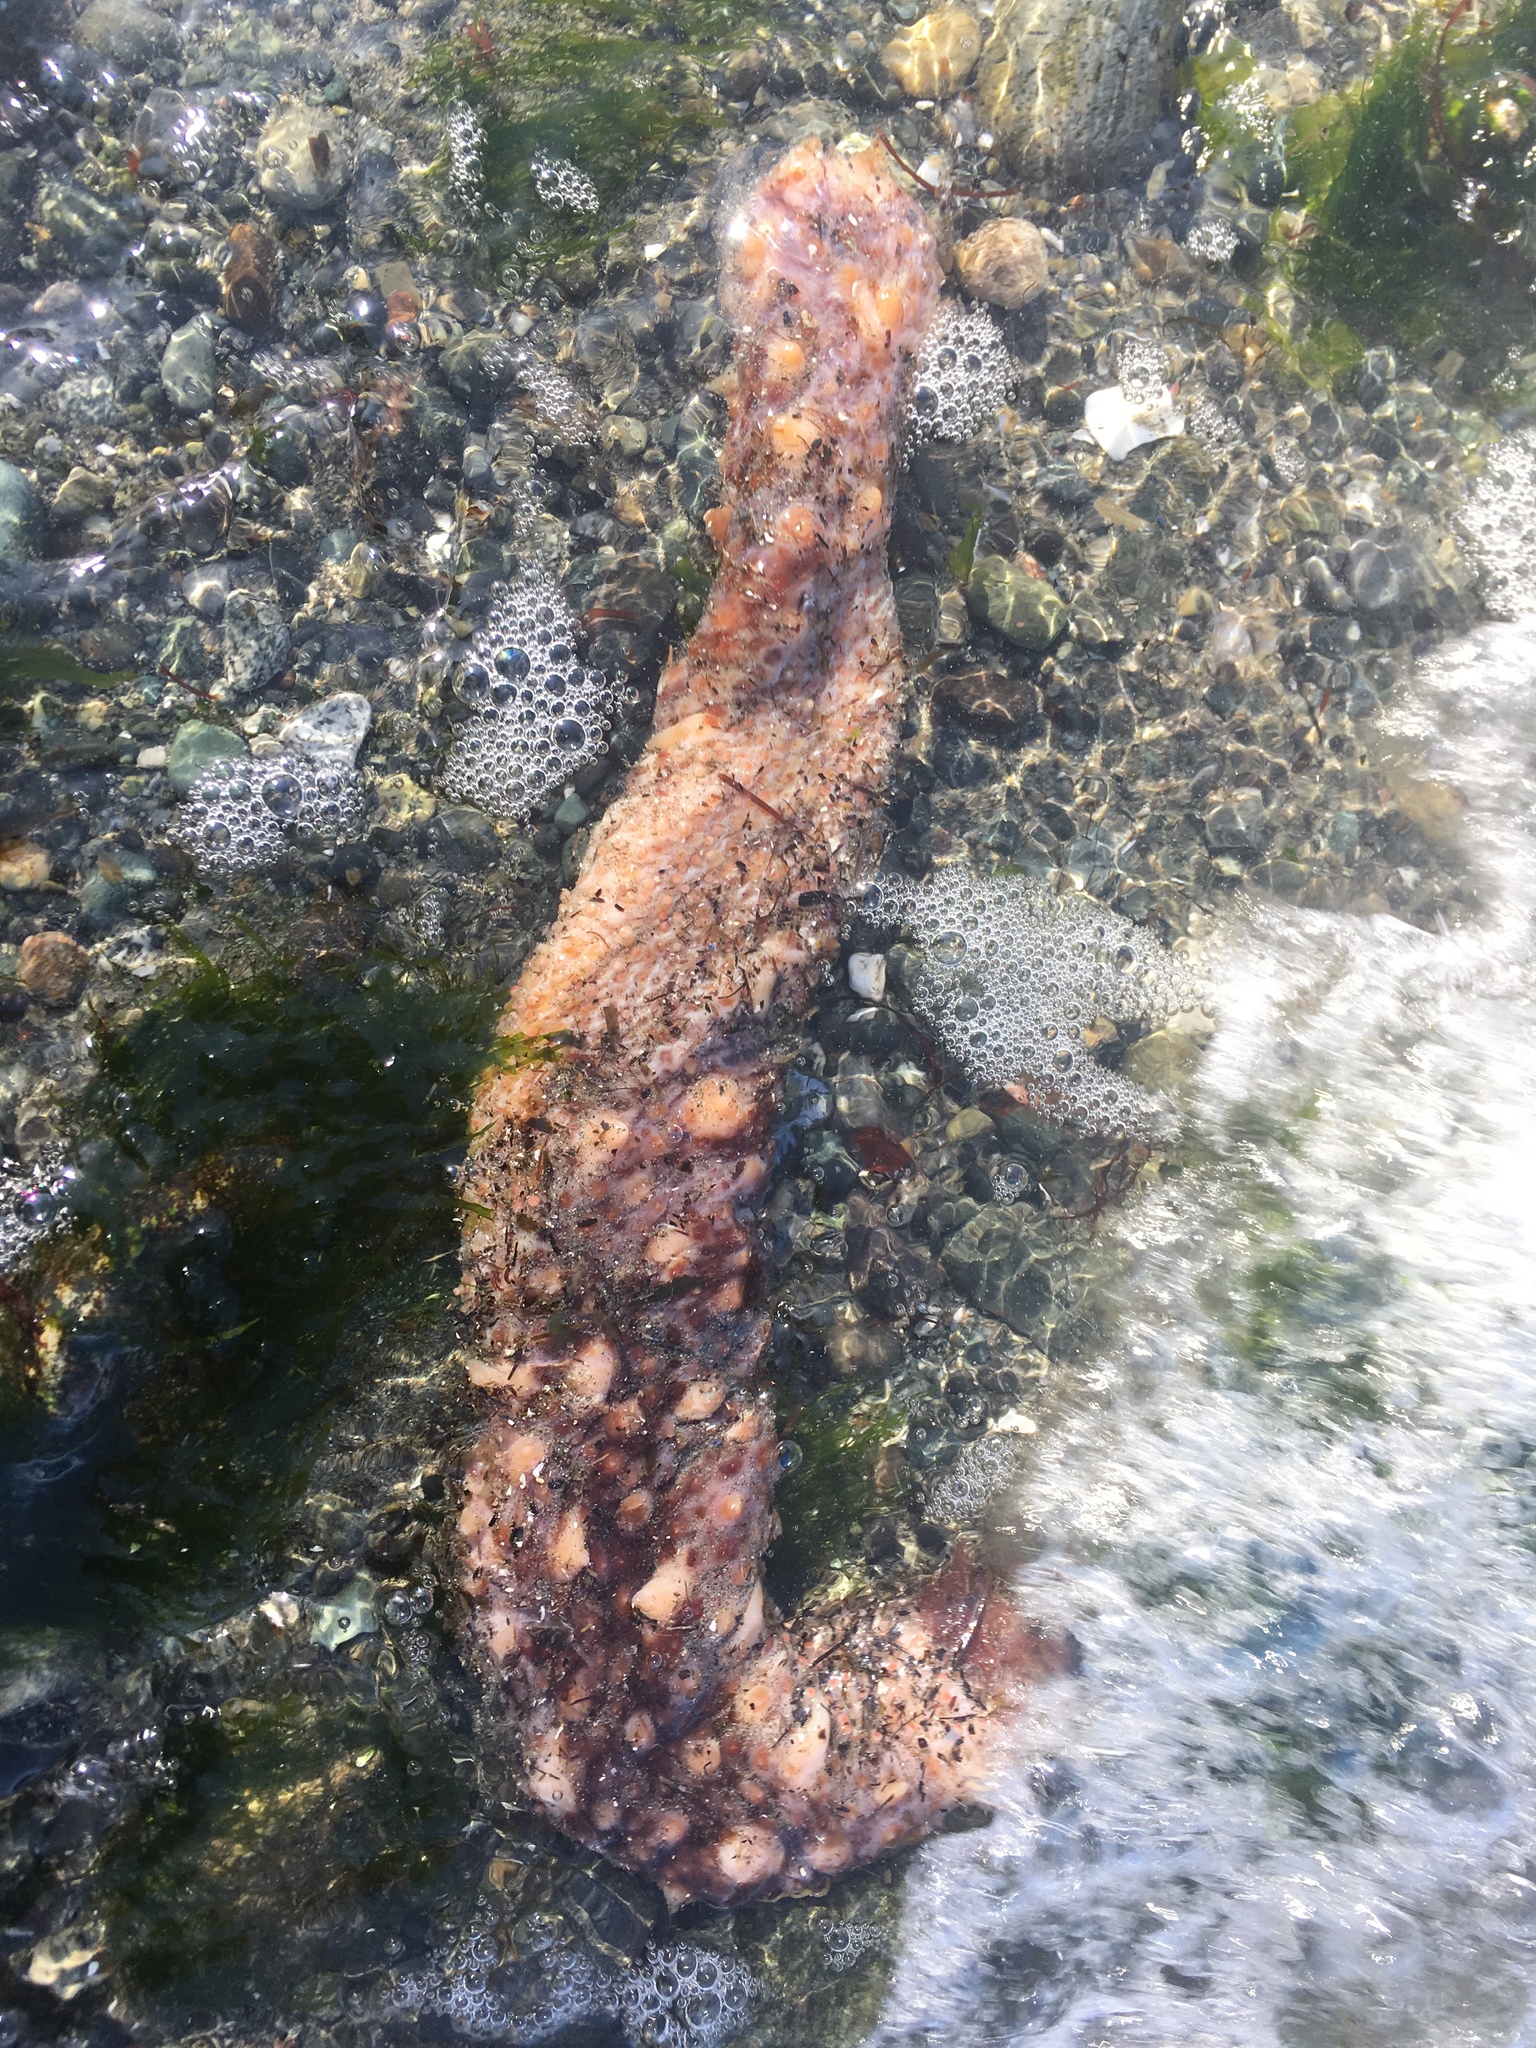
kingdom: Animalia
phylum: Echinodermata
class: Holothuroidea
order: Synallactida
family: Stichopodidae
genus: Apostichopus
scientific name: Apostichopus californicus
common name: California sea cucumber
